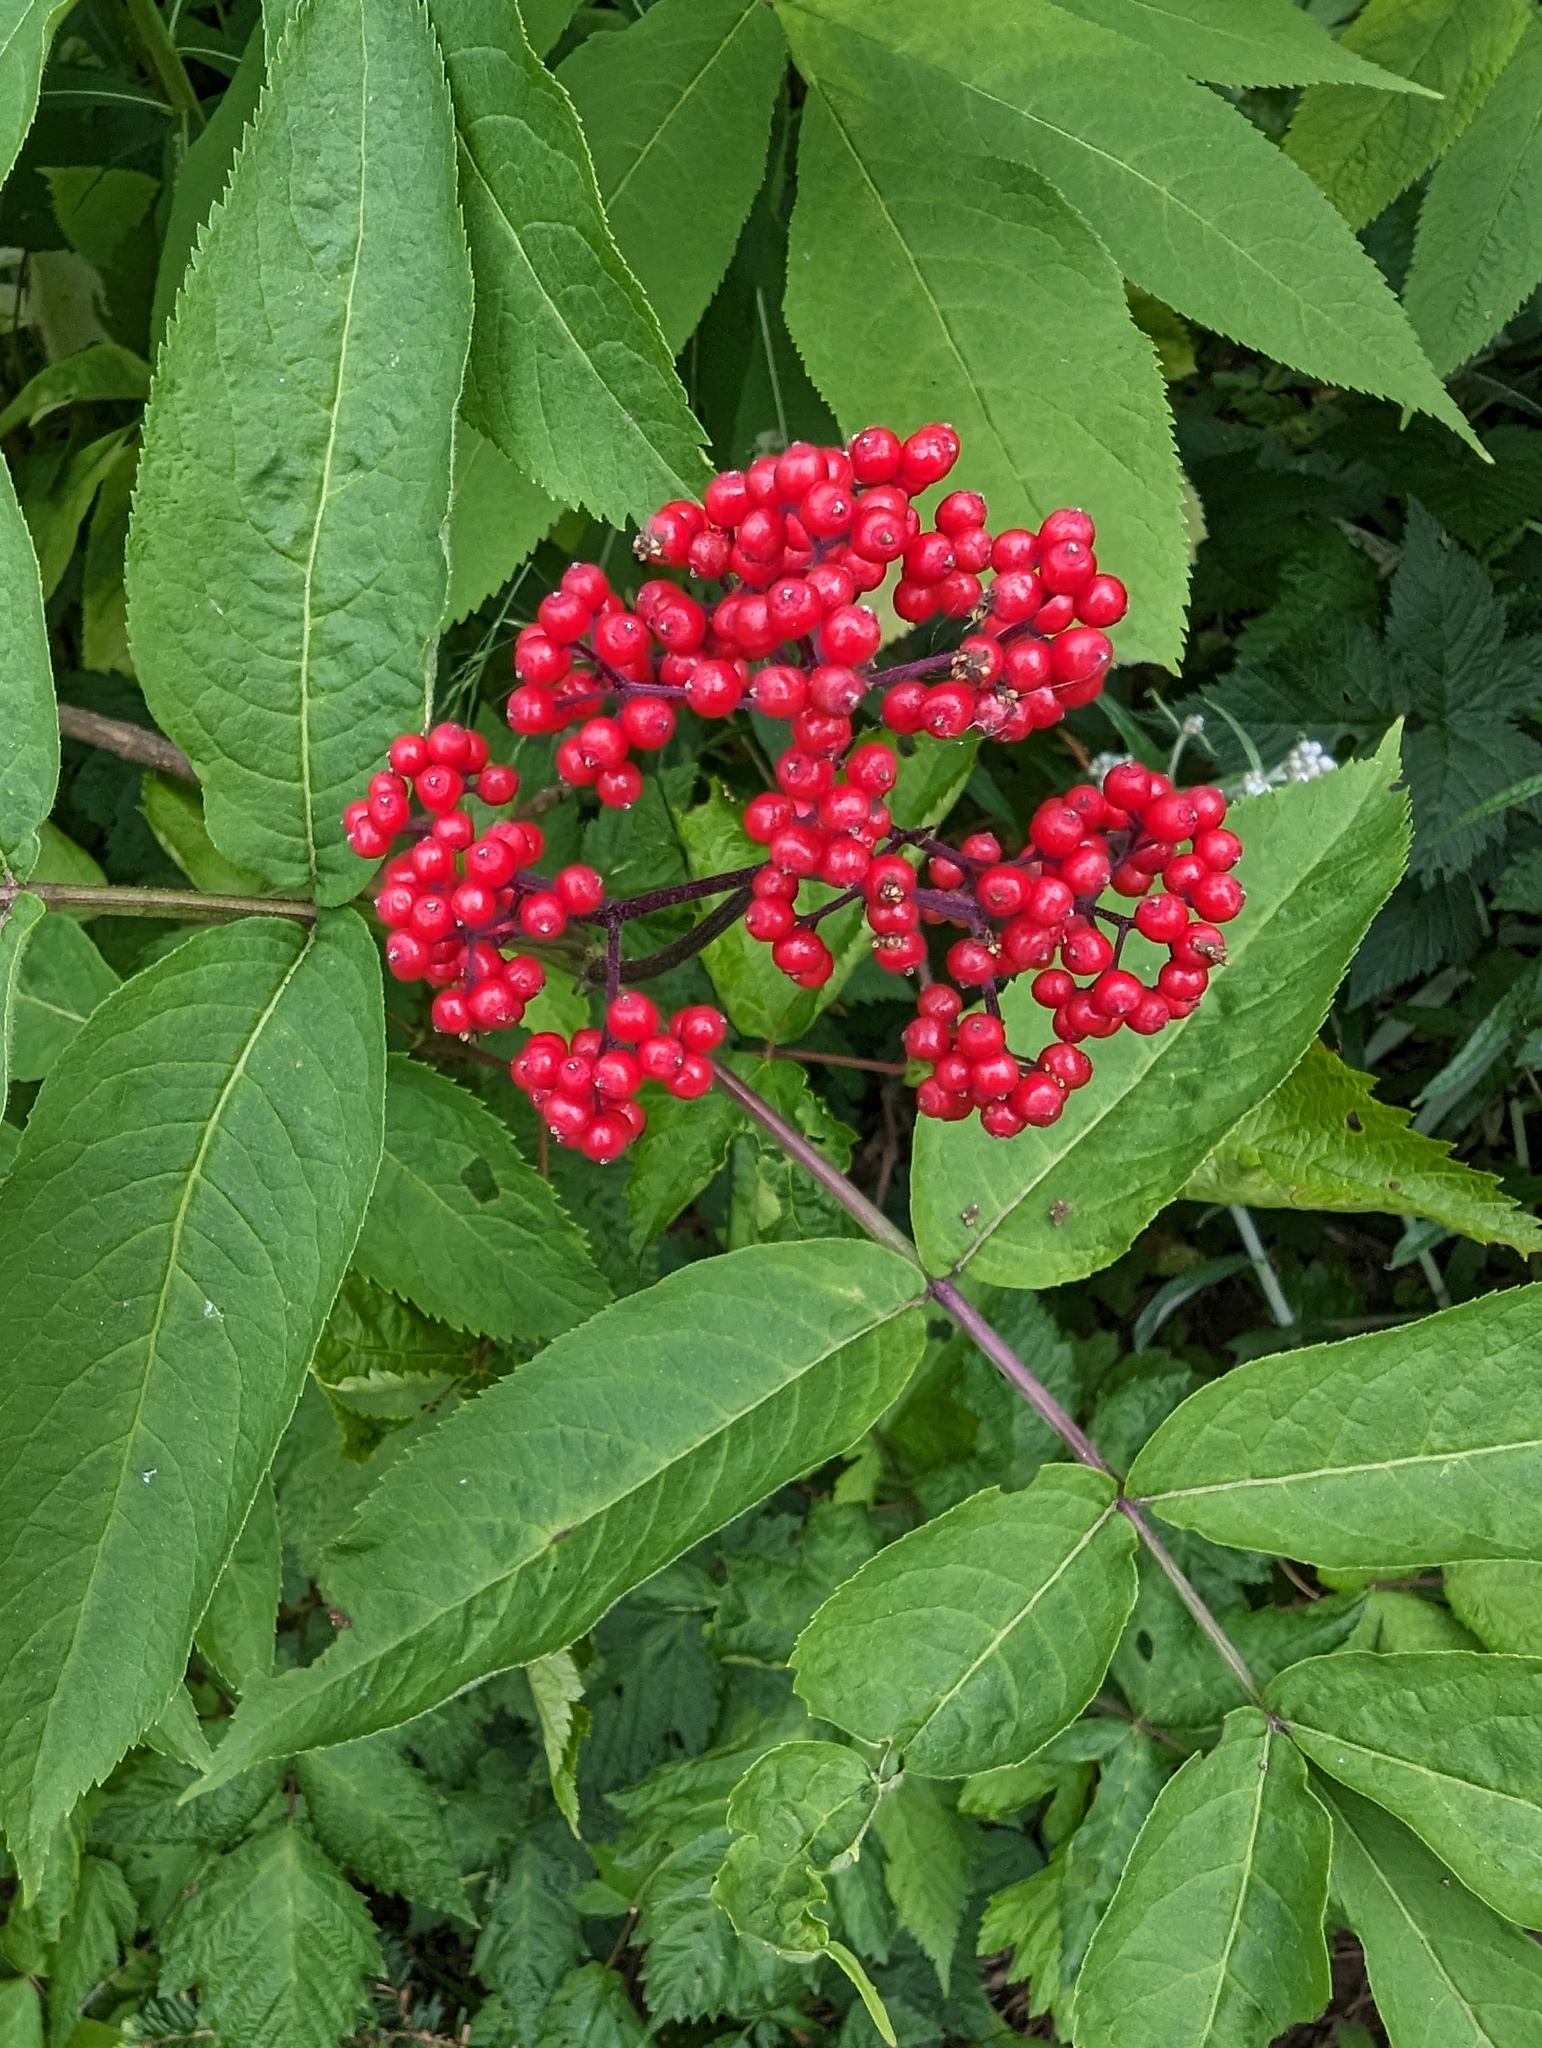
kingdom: Plantae
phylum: Tracheophyta
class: Magnoliopsida
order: Dipsacales
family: Viburnaceae
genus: Sambucus
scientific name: Sambucus racemosa
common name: Red-berried elder
